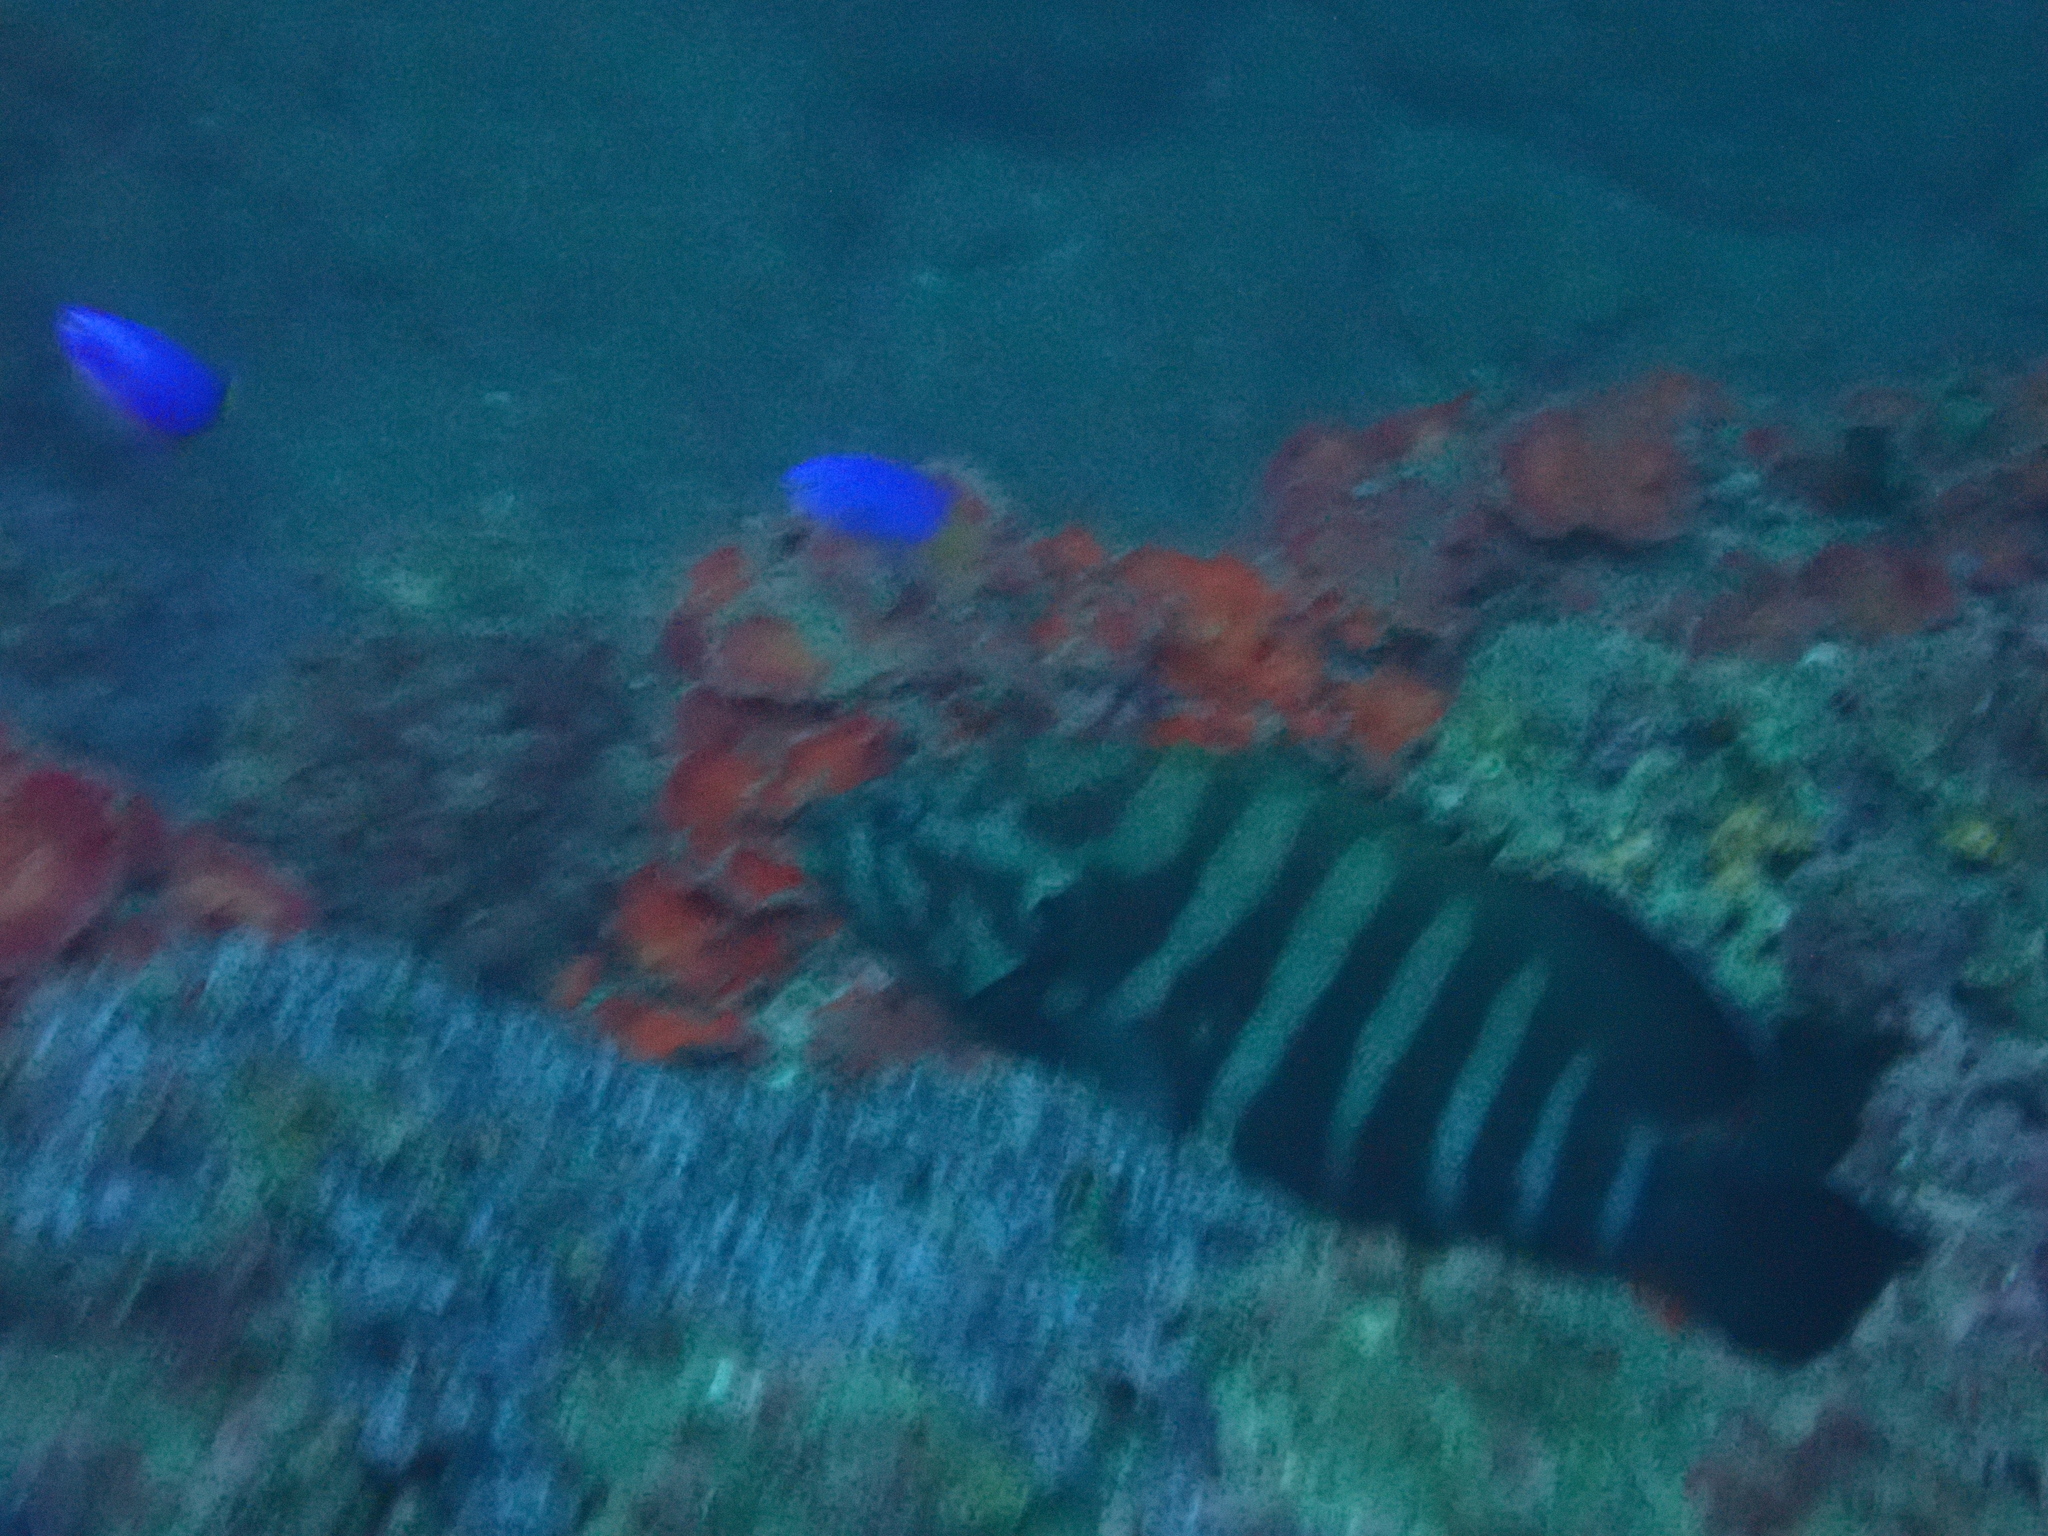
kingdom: Animalia
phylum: Chordata
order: Perciformes
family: Serranidae
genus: Cephalopholis
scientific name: Cephalopholis boenak
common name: Chocolate hind
